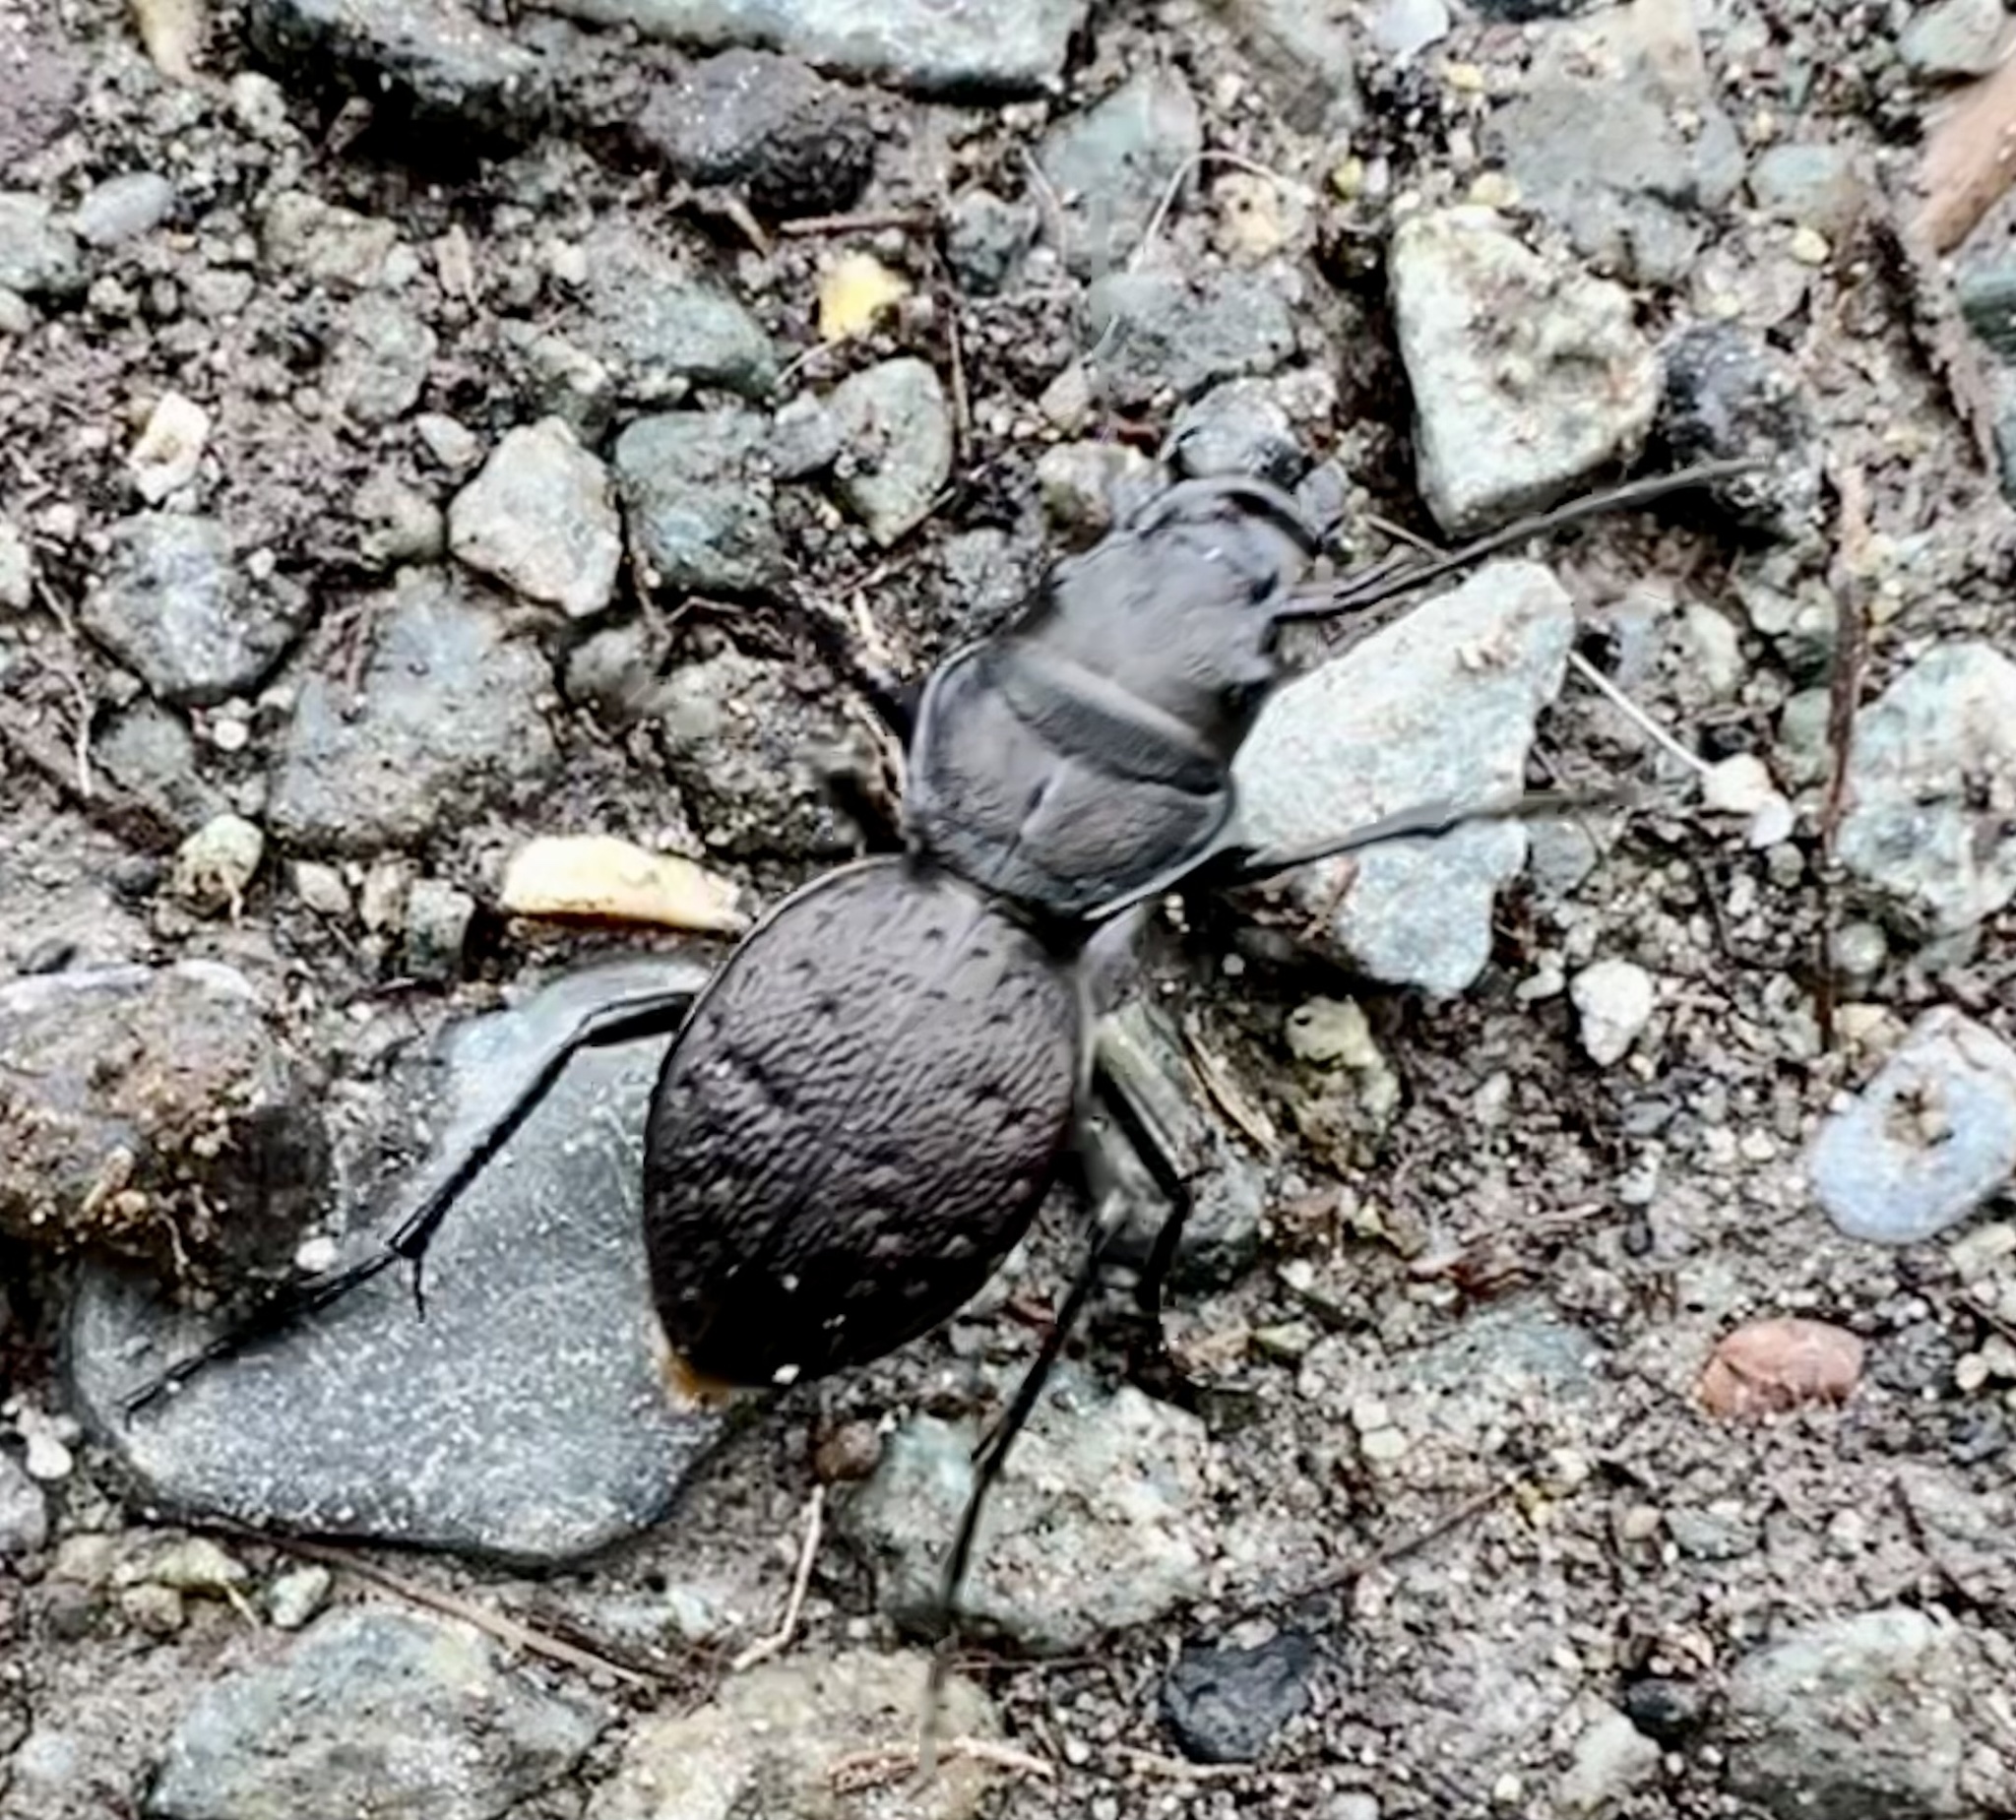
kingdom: Animalia
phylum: Arthropoda
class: Insecta
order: Coleoptera
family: Carabidae
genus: Omus
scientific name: Omus dejeanii
